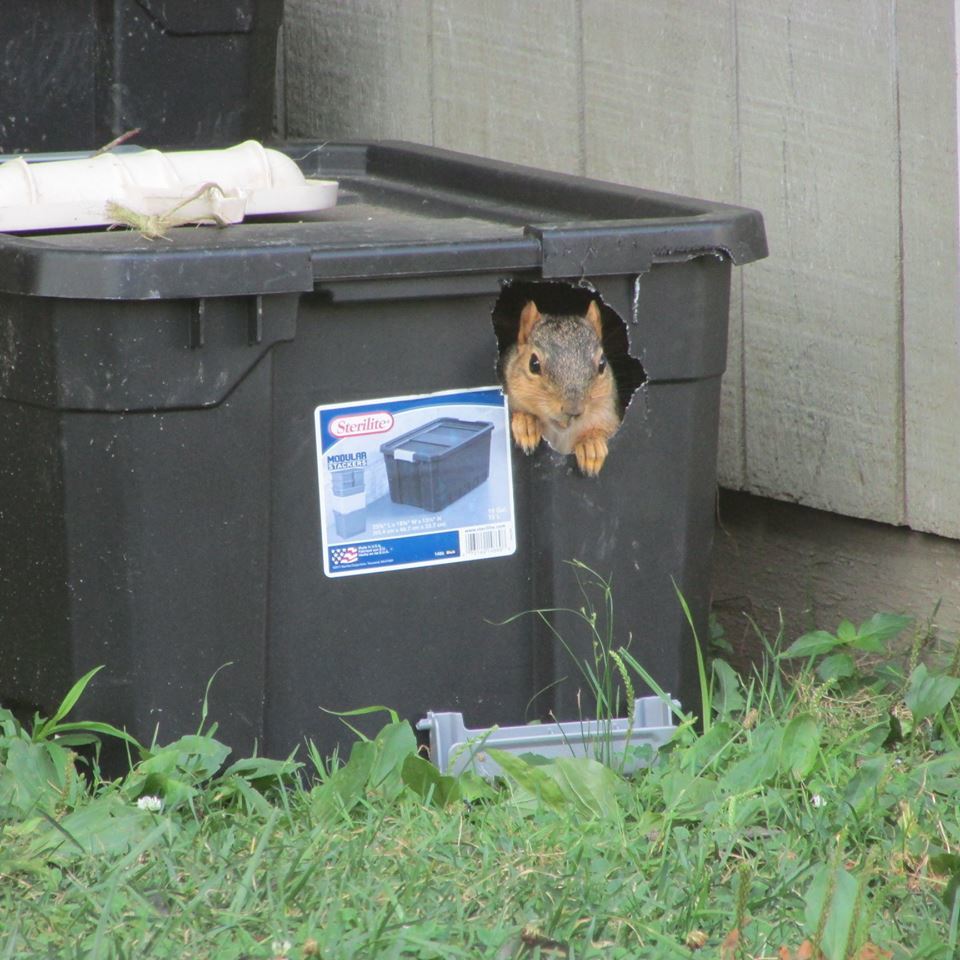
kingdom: Animalia
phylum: Chordata
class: Mammalia
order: Rodentia
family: Sciuridae
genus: Sciurus
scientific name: Sciurus niger
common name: Fox squirrel
